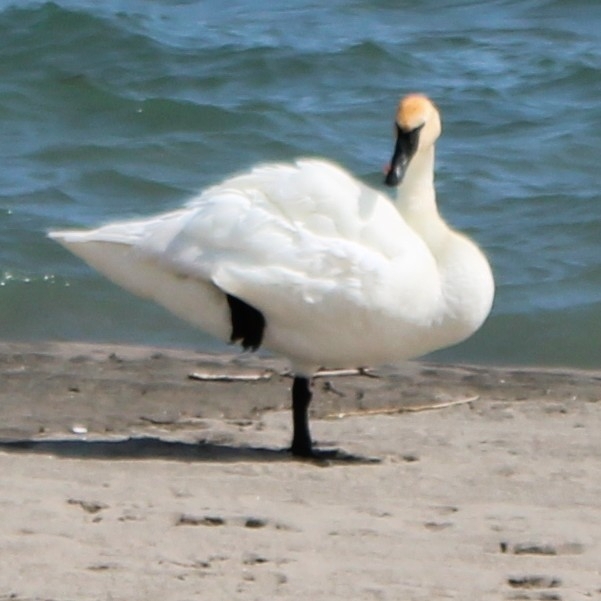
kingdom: Animalia
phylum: Chordata
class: Aves
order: Anseriformes
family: Anatidae
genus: Cygnus
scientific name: Cygnus buccinator
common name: Trumpeter swan
